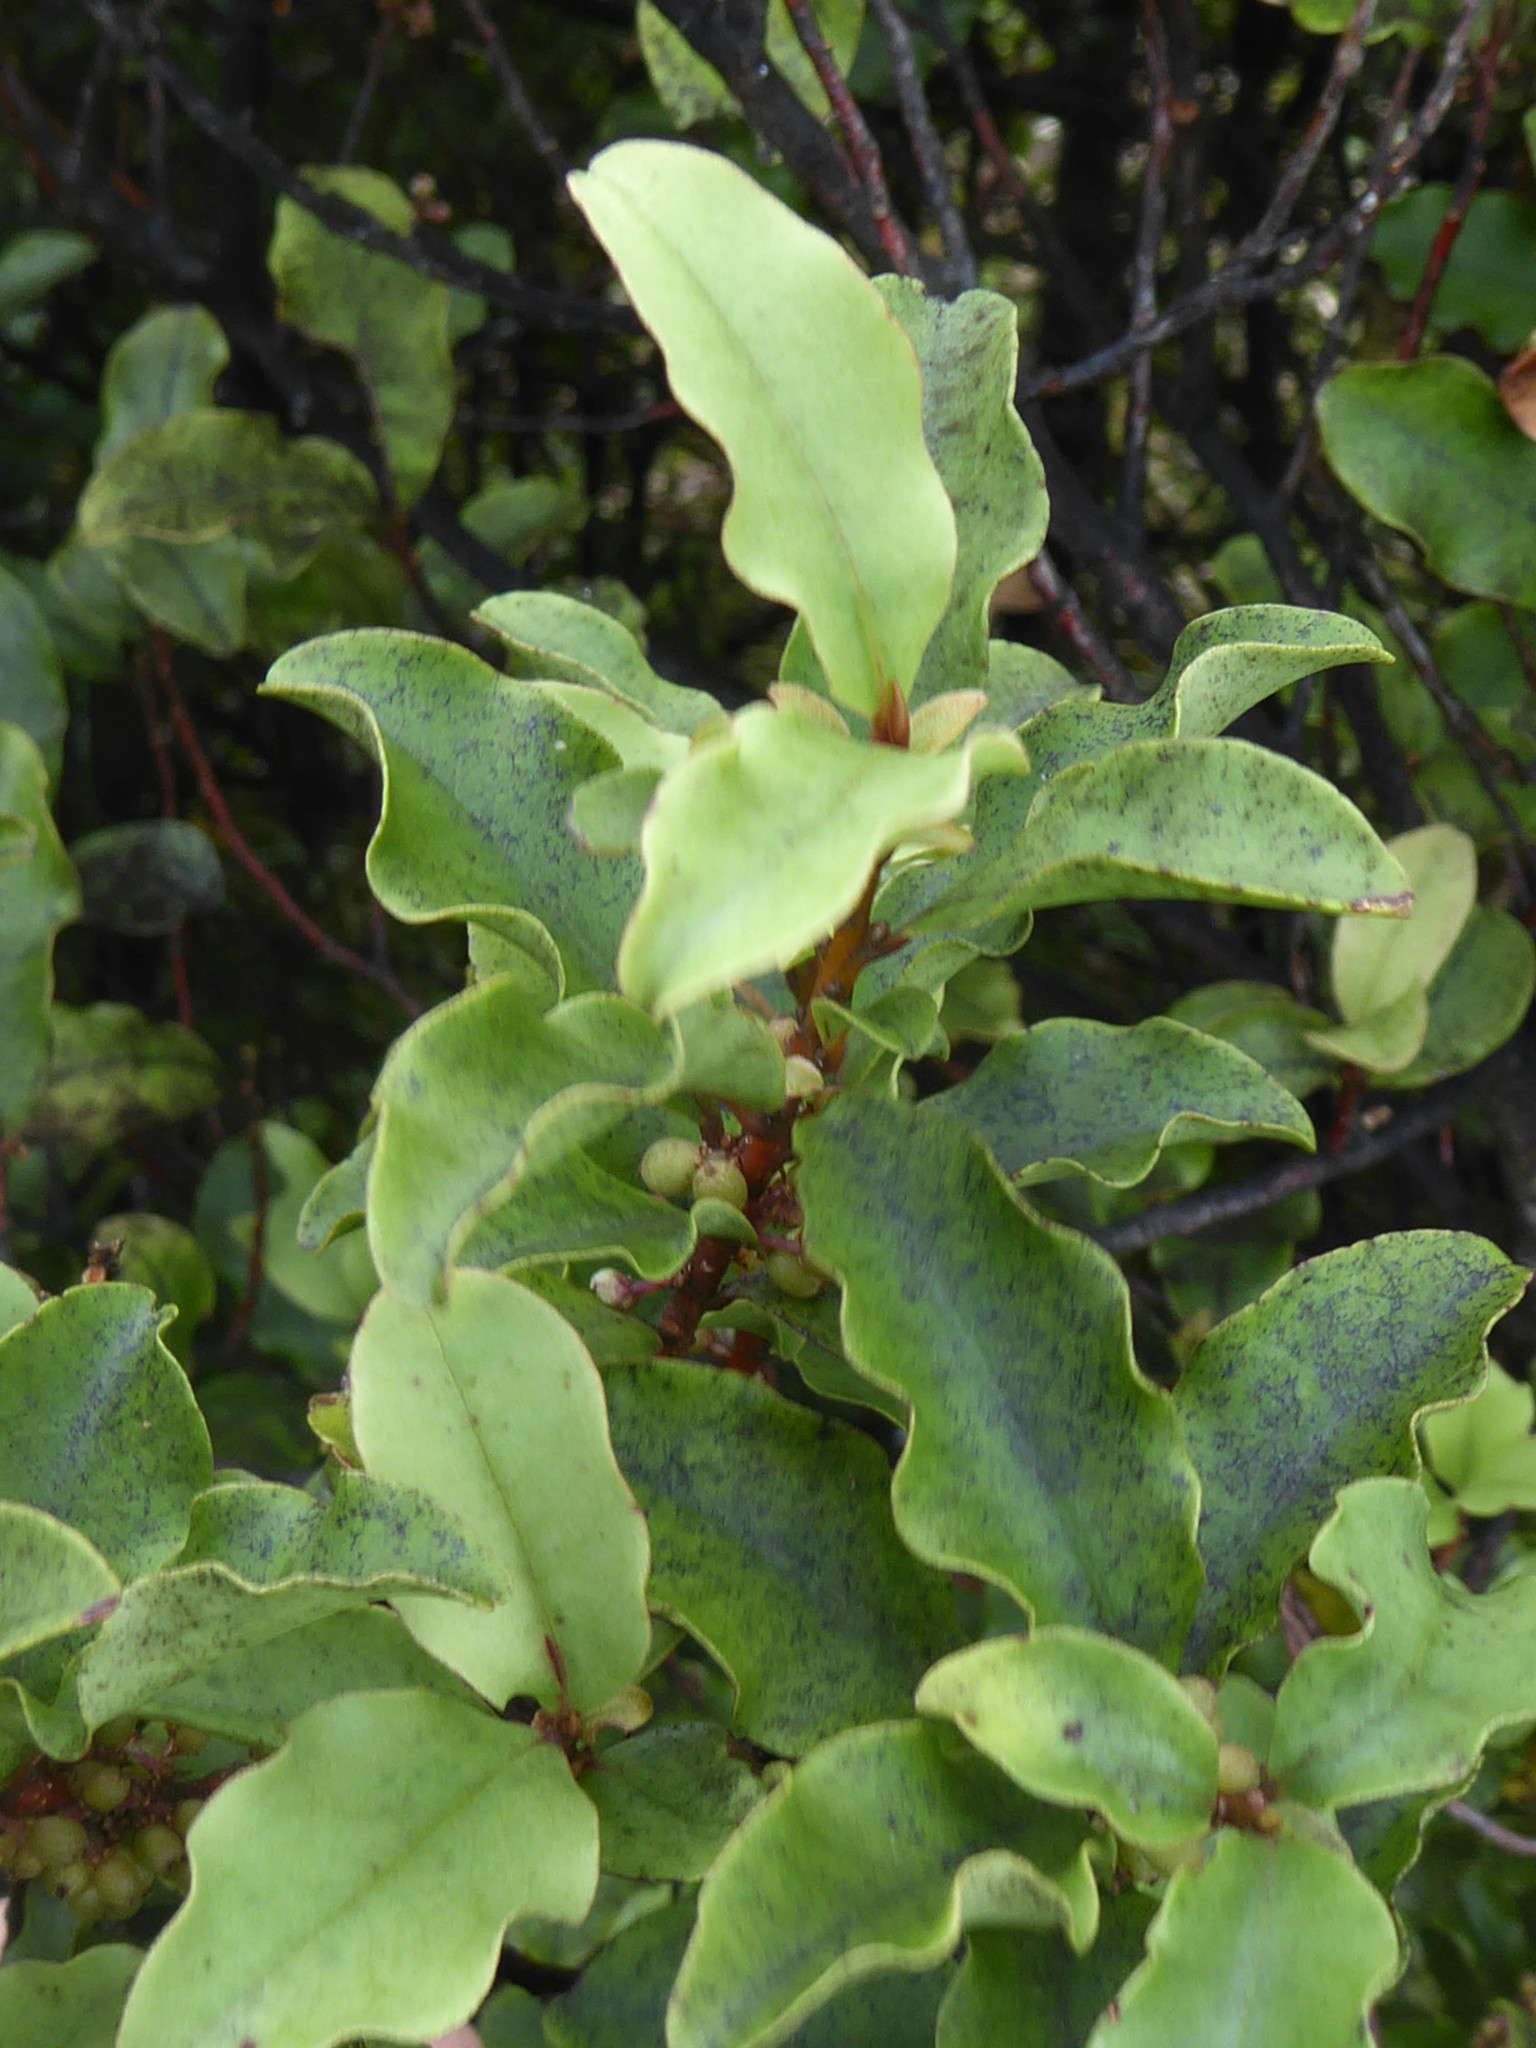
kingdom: Plantae
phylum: Tracheophyta
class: Magnoliopsida
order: Ericales
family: Primulaceae
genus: Myrsine
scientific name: Myrsine australis
